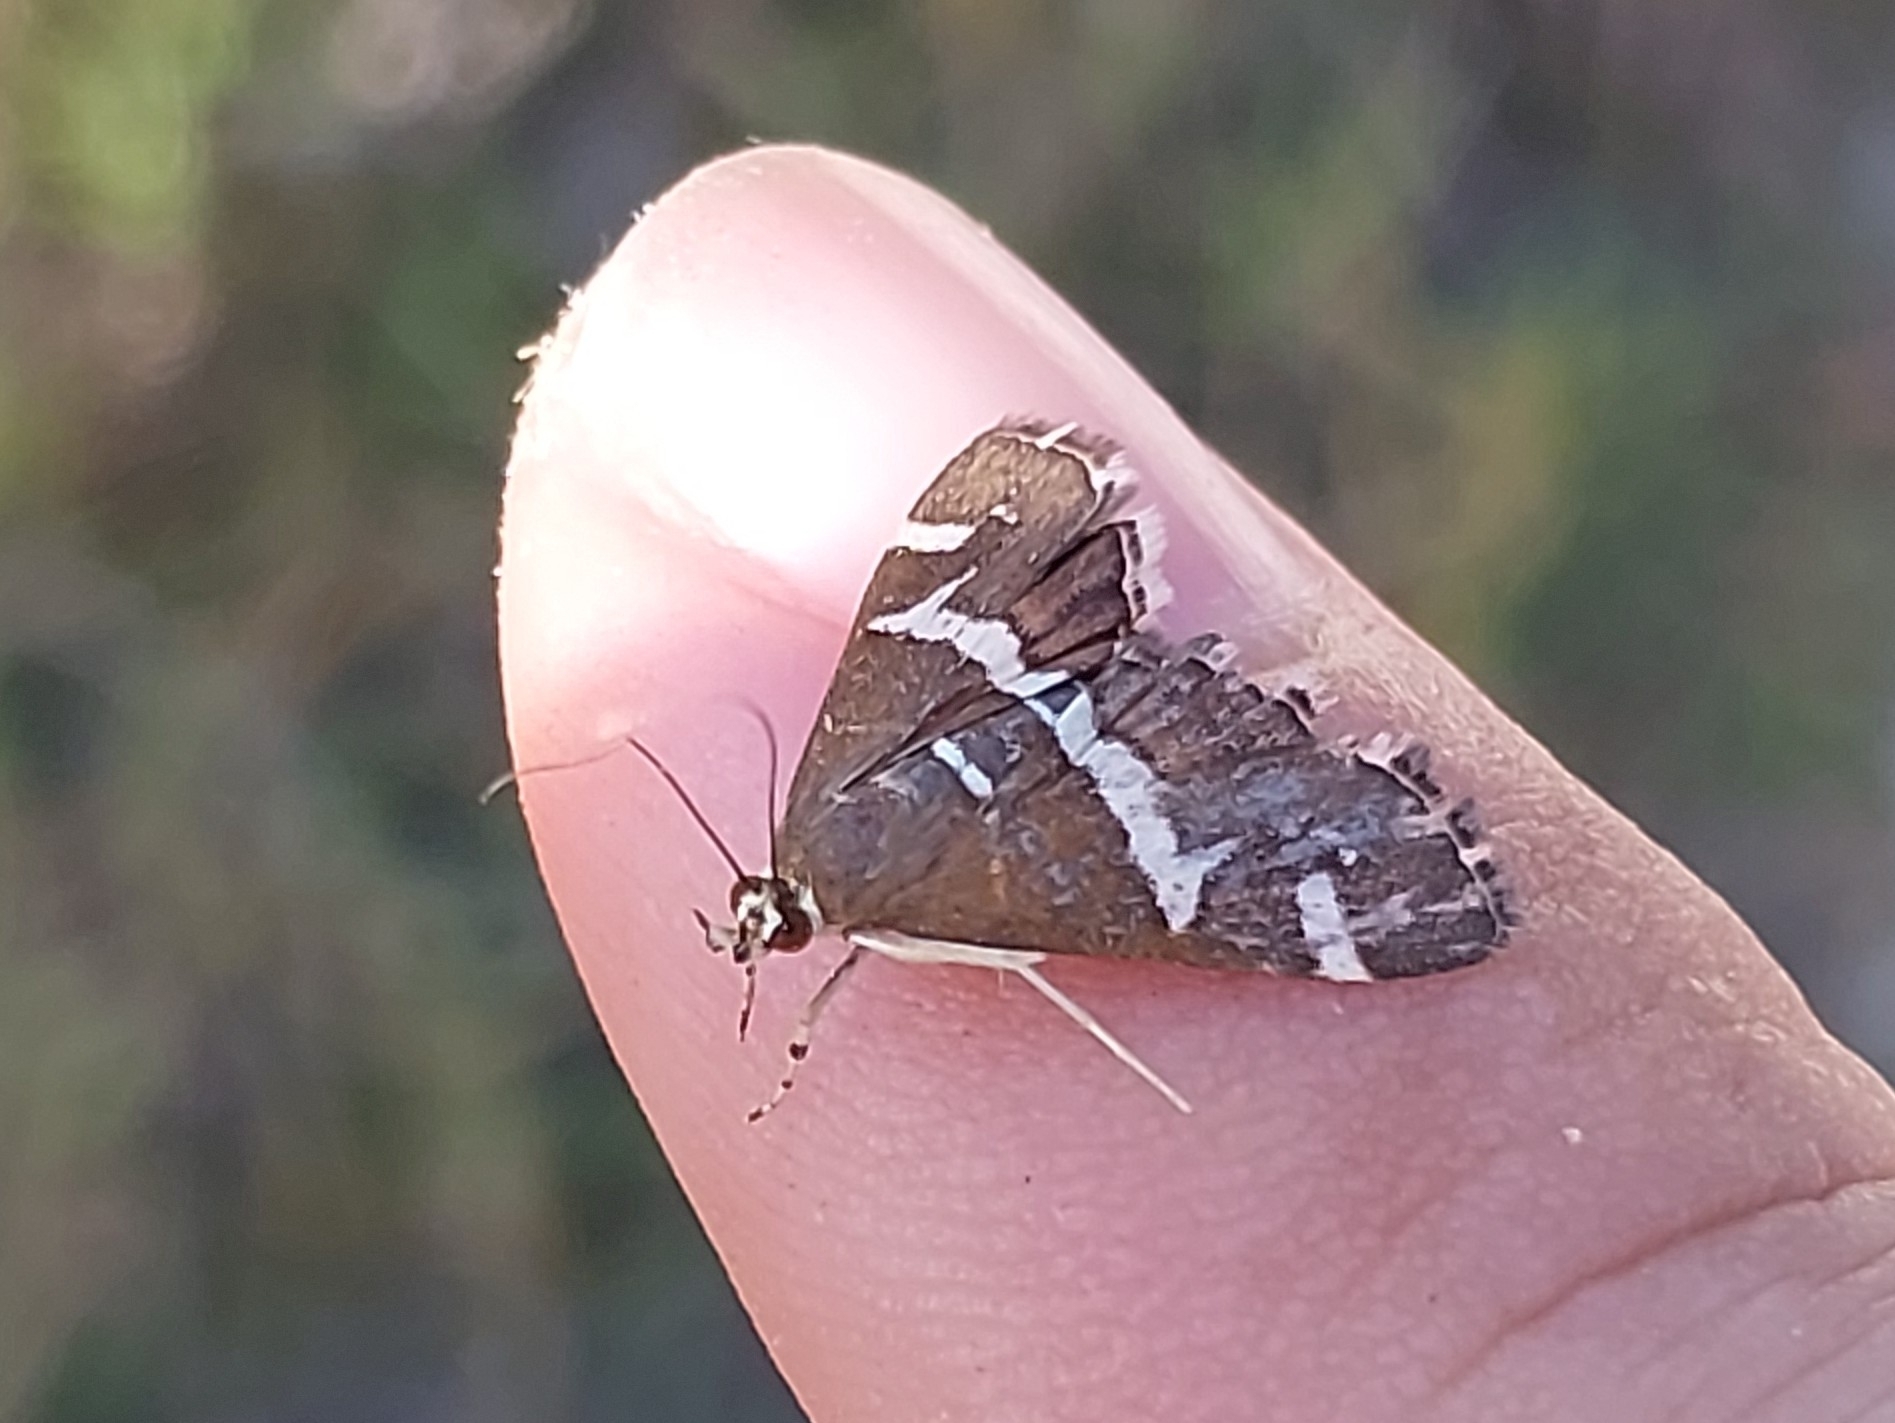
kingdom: Animalia
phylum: Arthropoda
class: Insecta
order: Lepidoptera
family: Crambidae
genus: Spoladea
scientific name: Spoladea recurvalis
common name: Beet webworm moth
